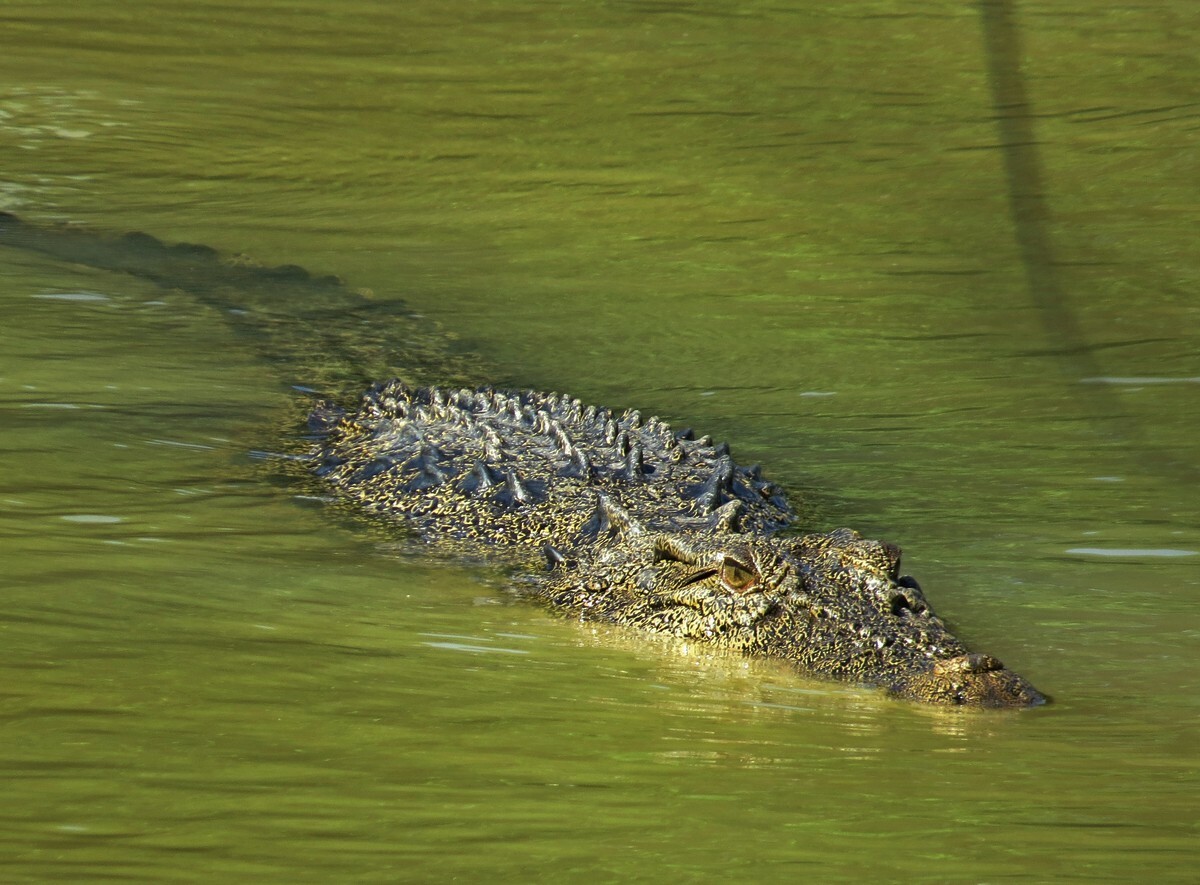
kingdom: Animalia
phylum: Chordata
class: Crocodylia
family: Crocodylidae
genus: Crocodylus
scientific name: Crocodylus porosus
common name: Saltwater crocodile
